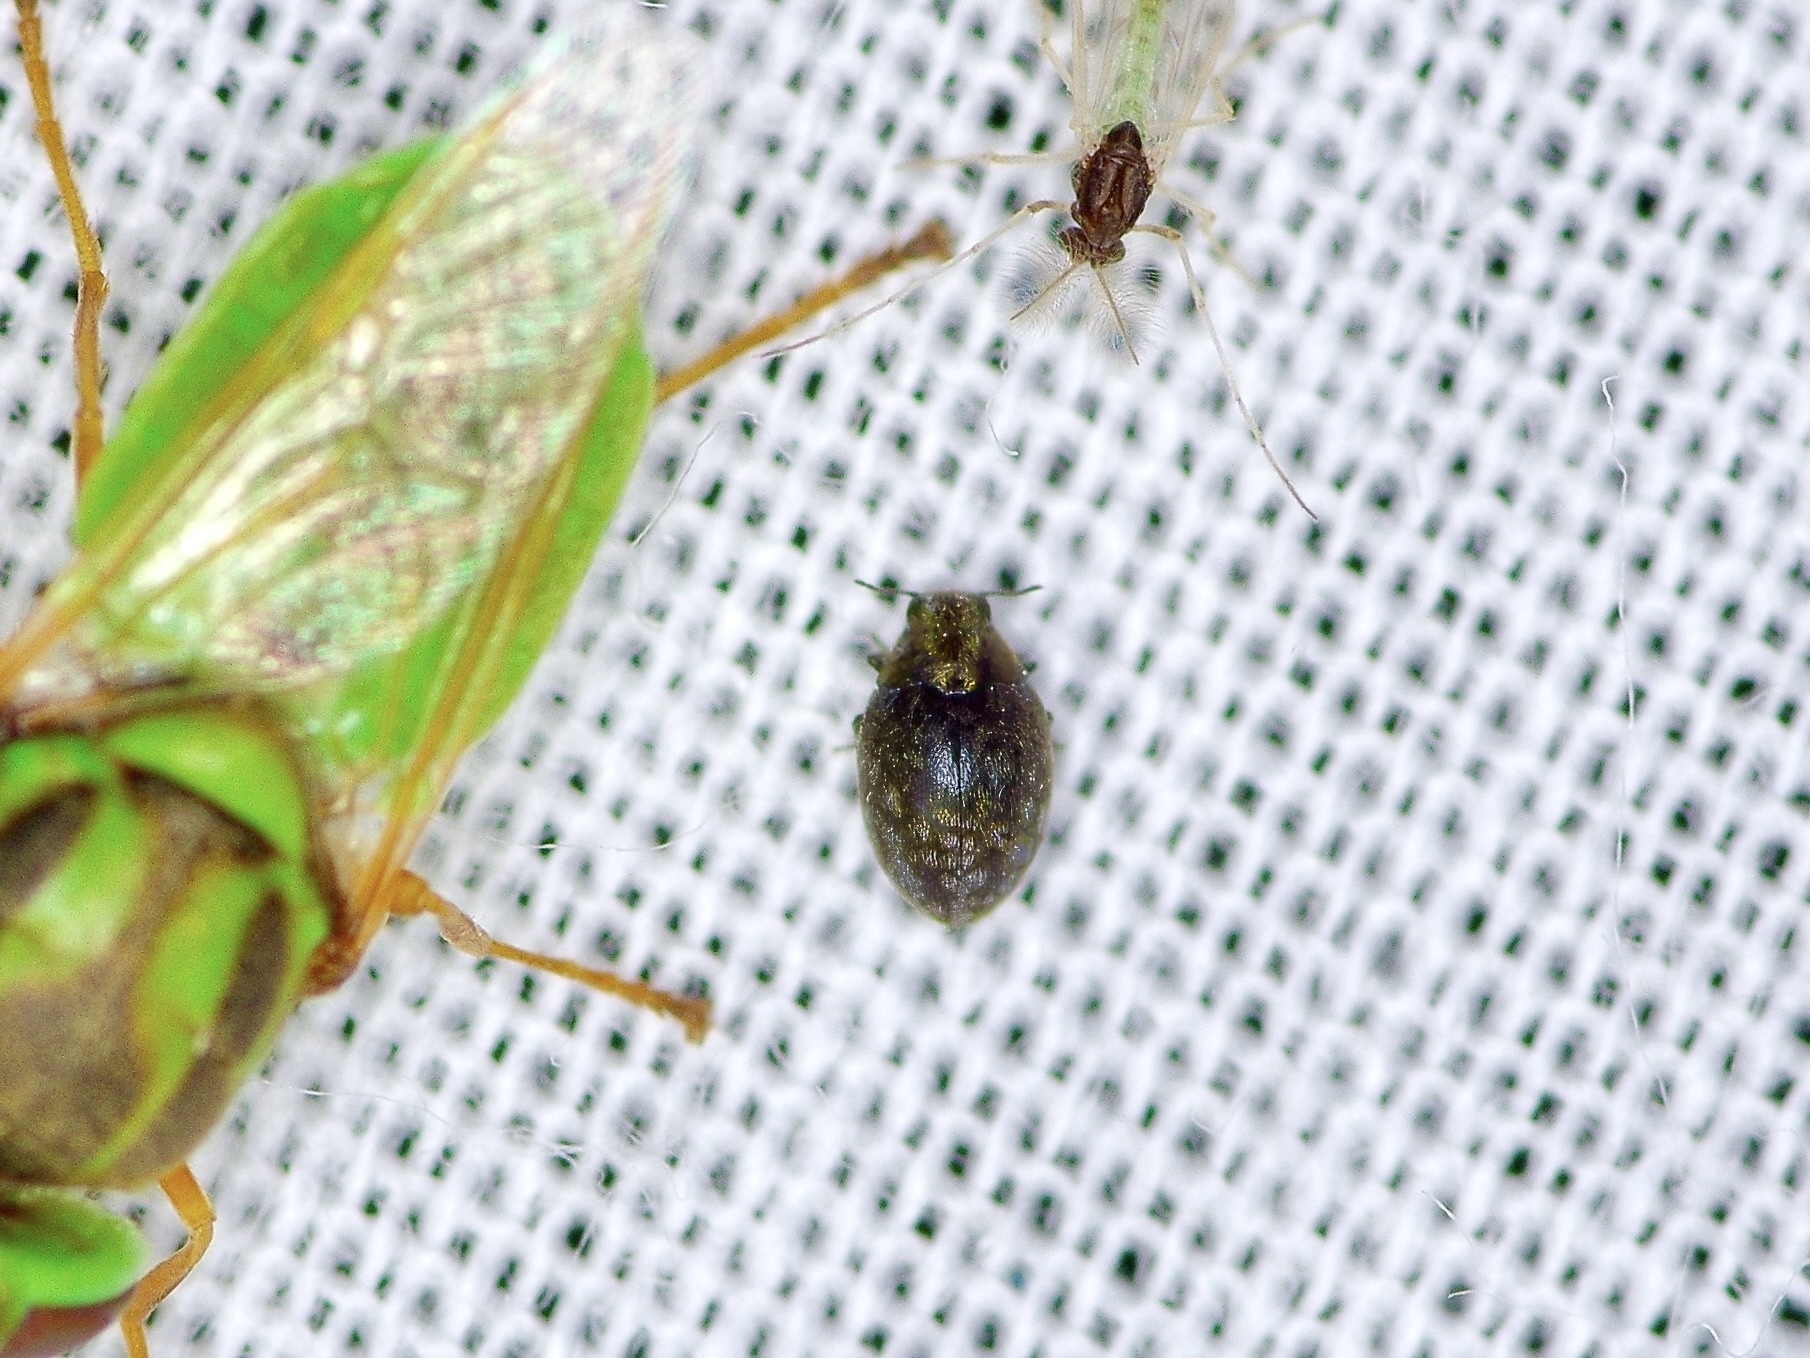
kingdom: Animalia
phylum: Arthropoda
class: Insecta
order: Coleoptera
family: Limnichidae
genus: Eulimnichus
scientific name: Eulimnichus ater
